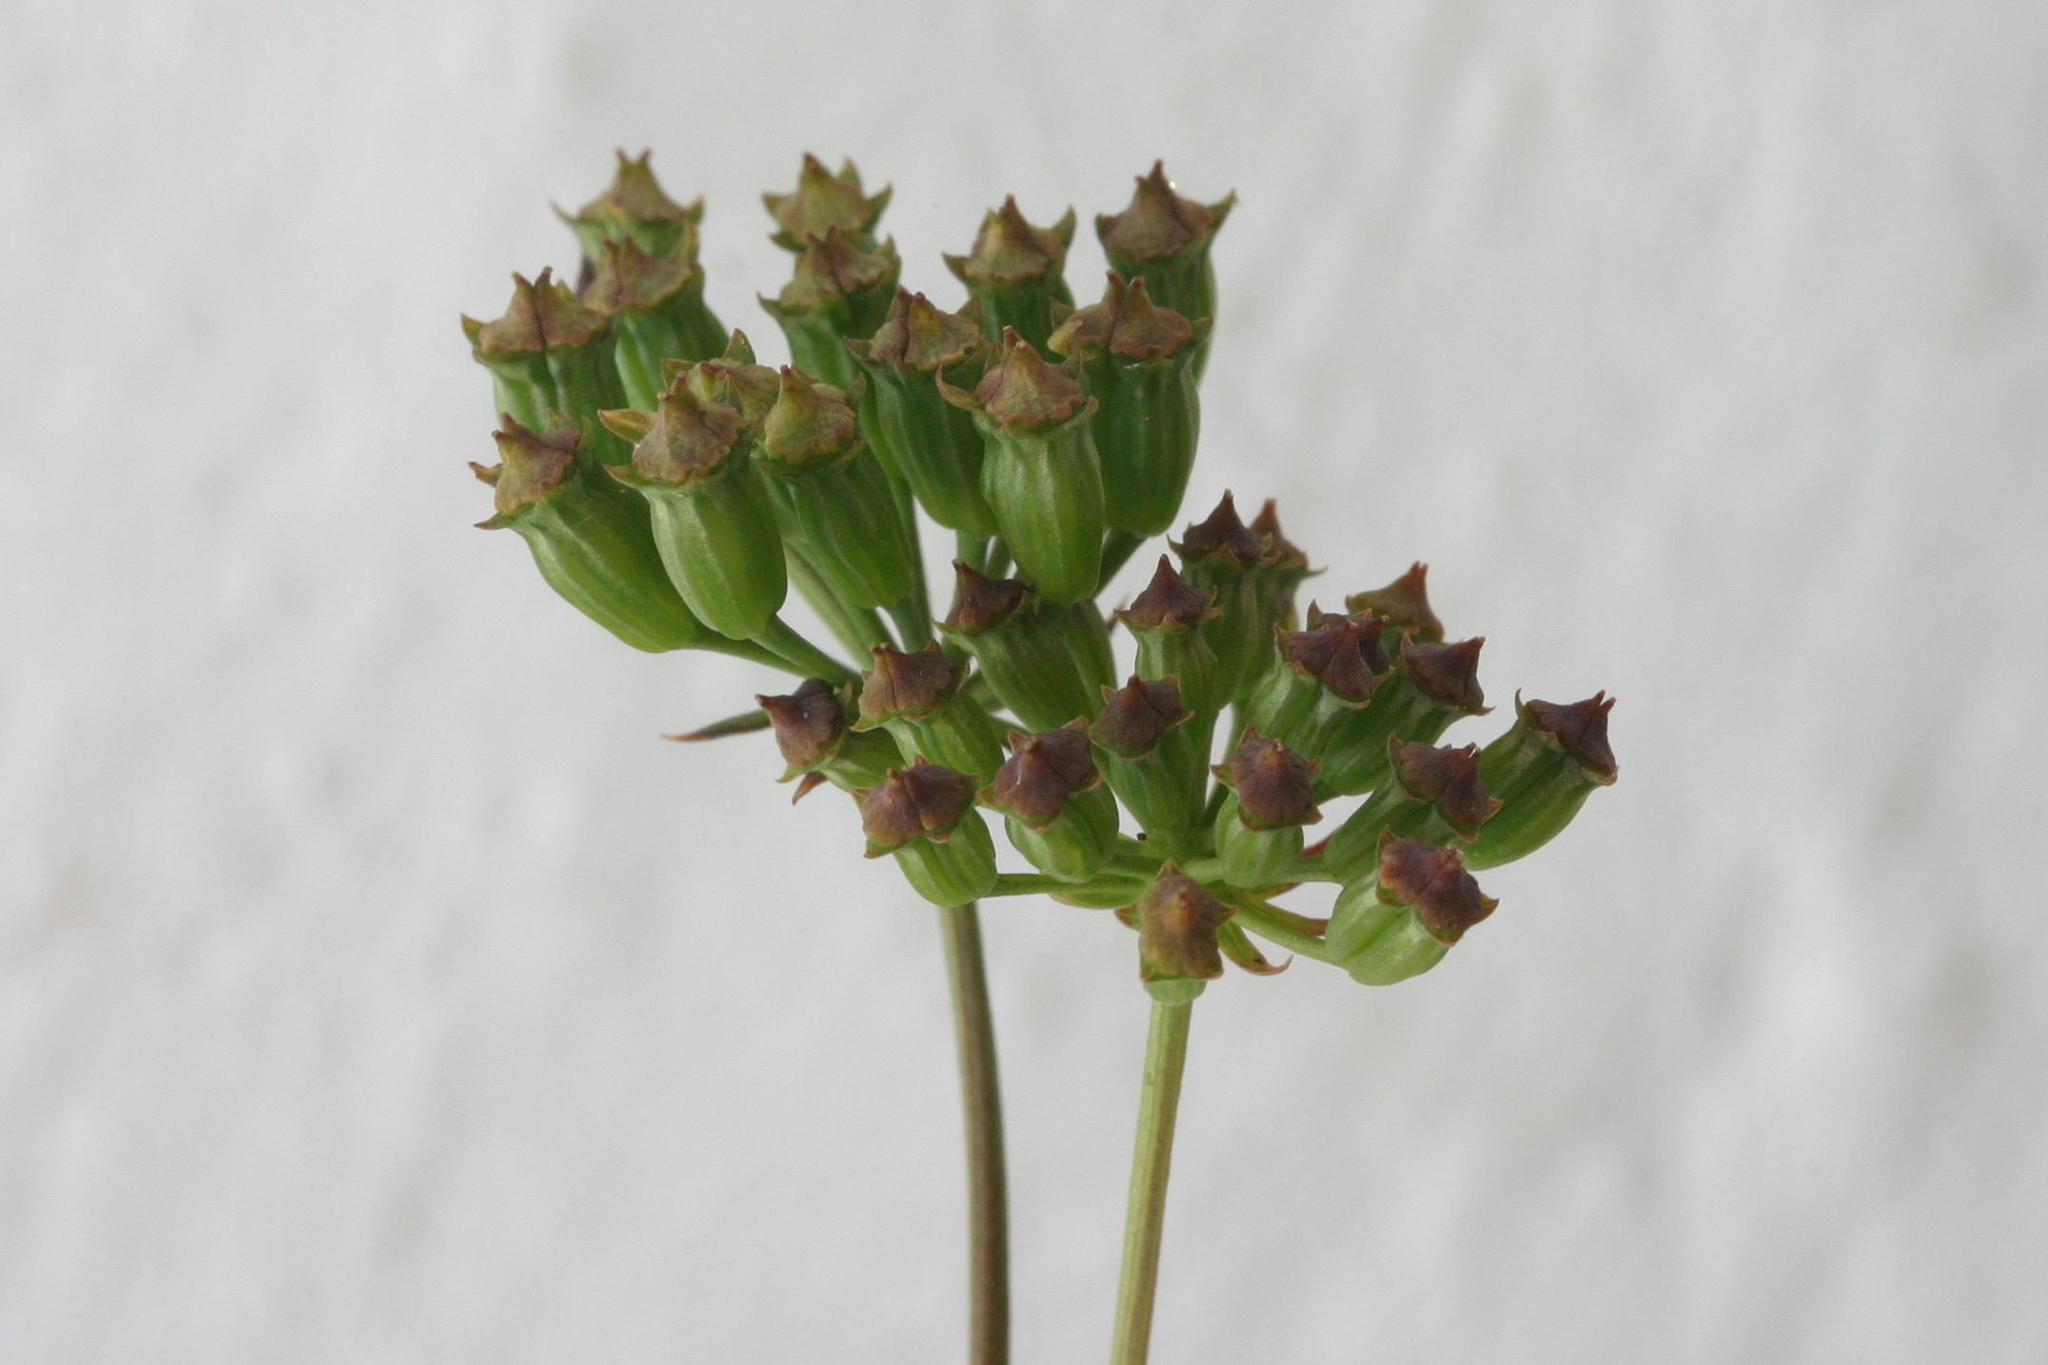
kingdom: Plantae
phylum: Tracheophyta
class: Magnoliopsida
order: Apiales
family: Apiaceae
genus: Lichtensteinia
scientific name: Lichtensteinia latifolia
